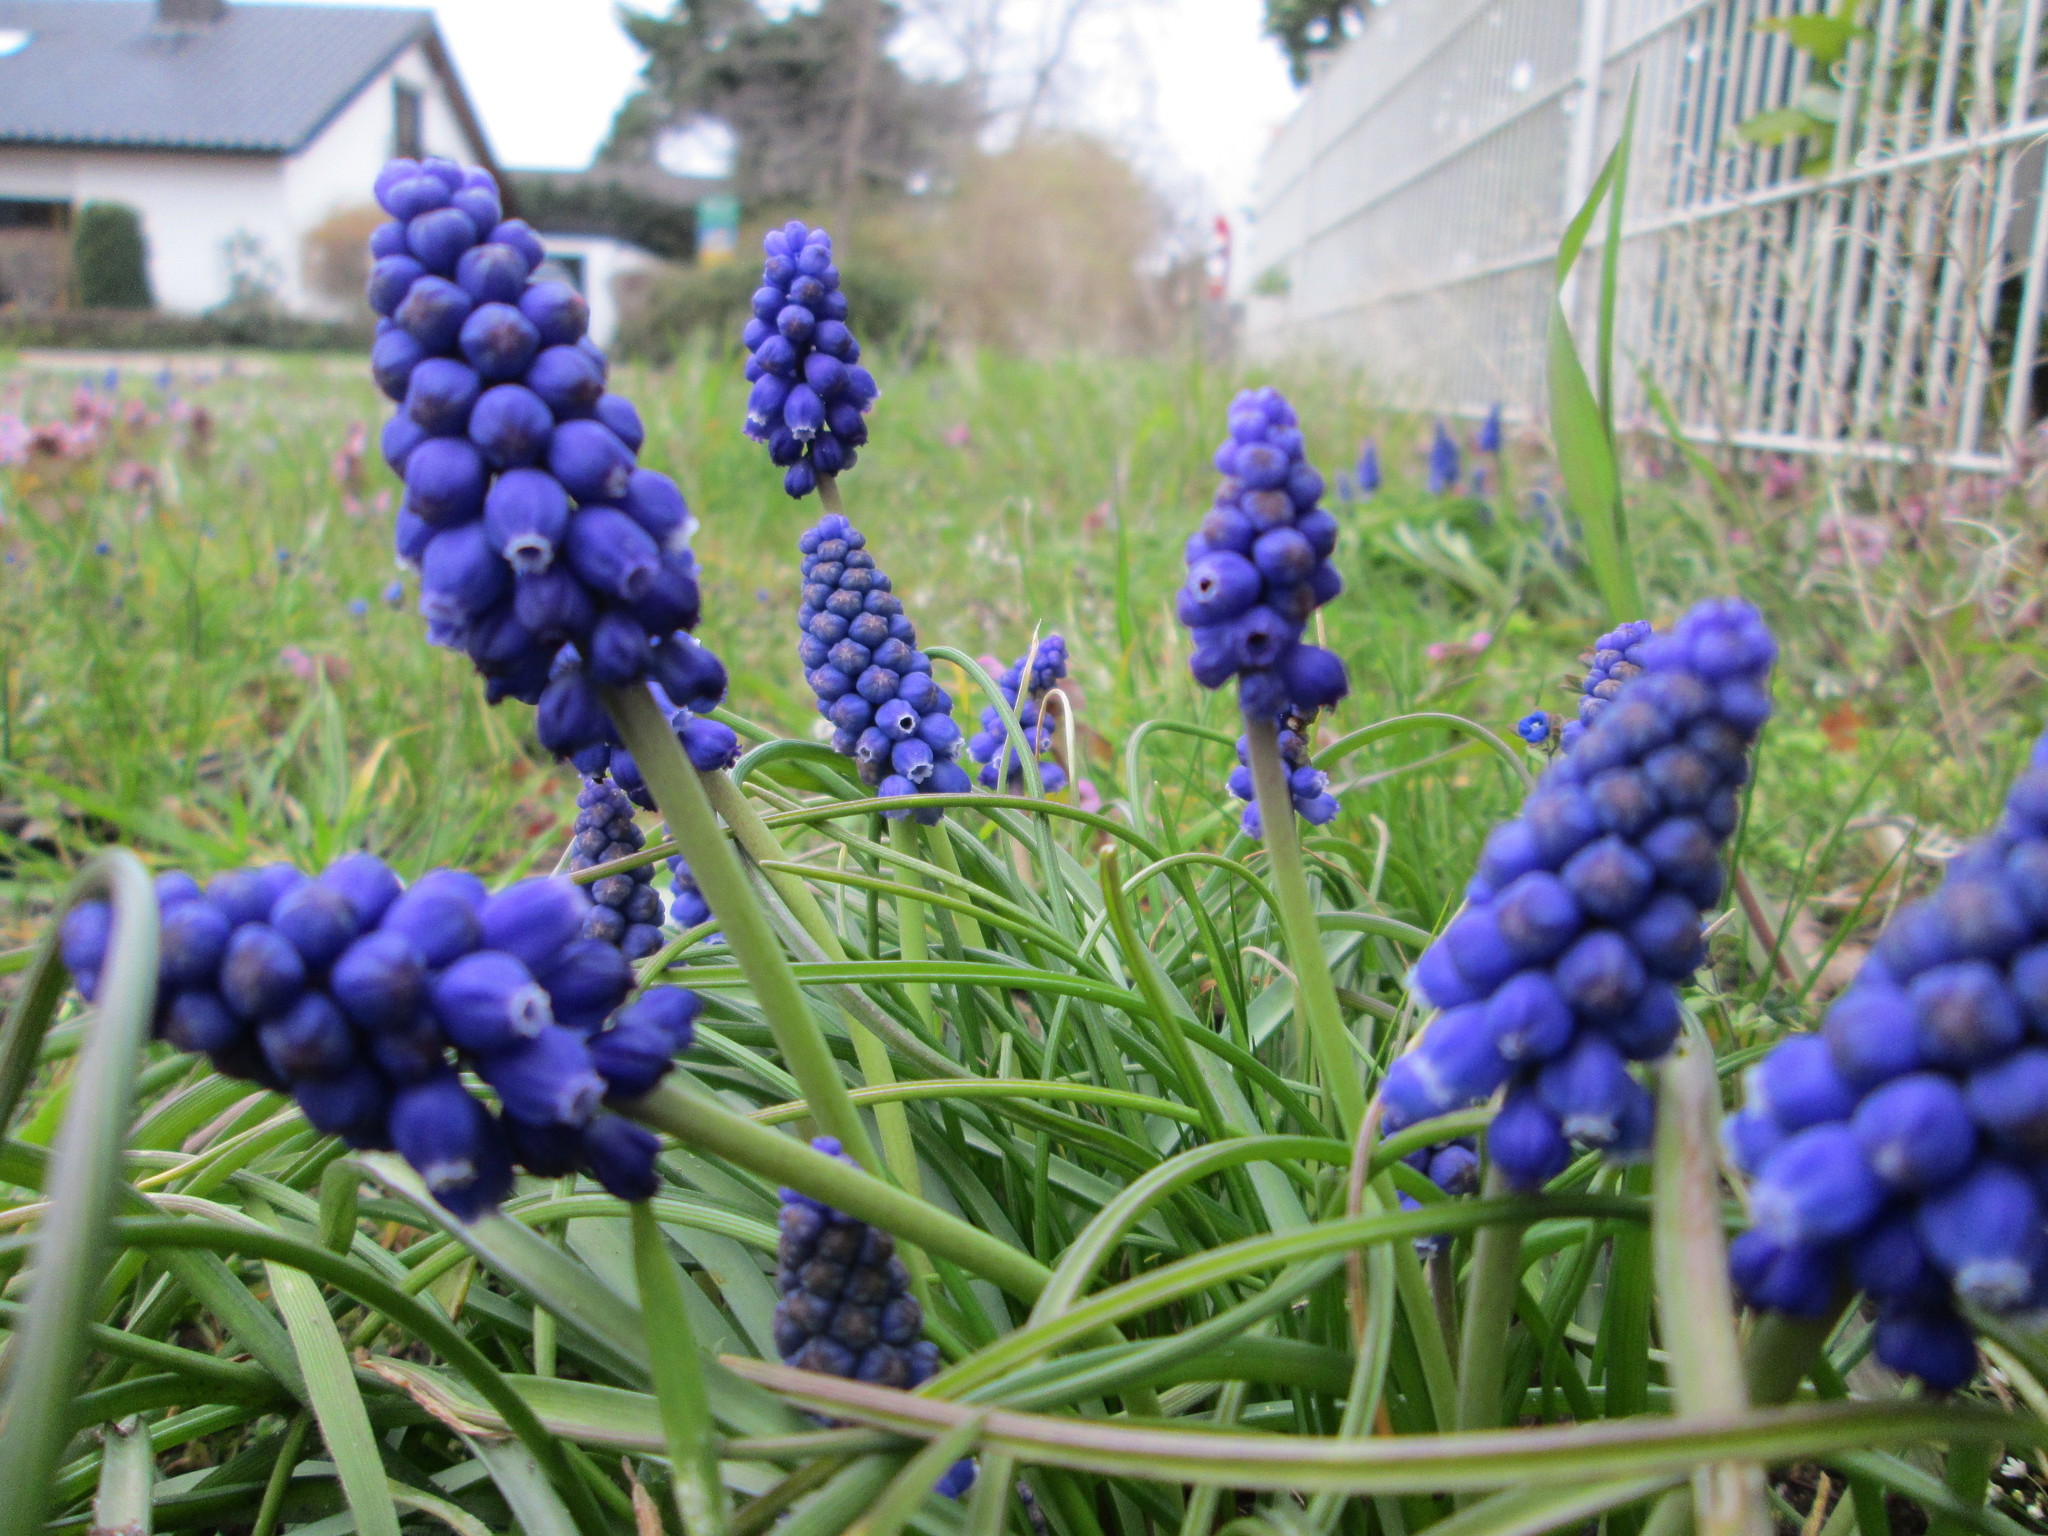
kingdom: Plantae
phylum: Tracheophyta
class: Liliopsida
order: Asparagales
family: Asparagaceae
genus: Muscari
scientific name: Muscari armeniacum
